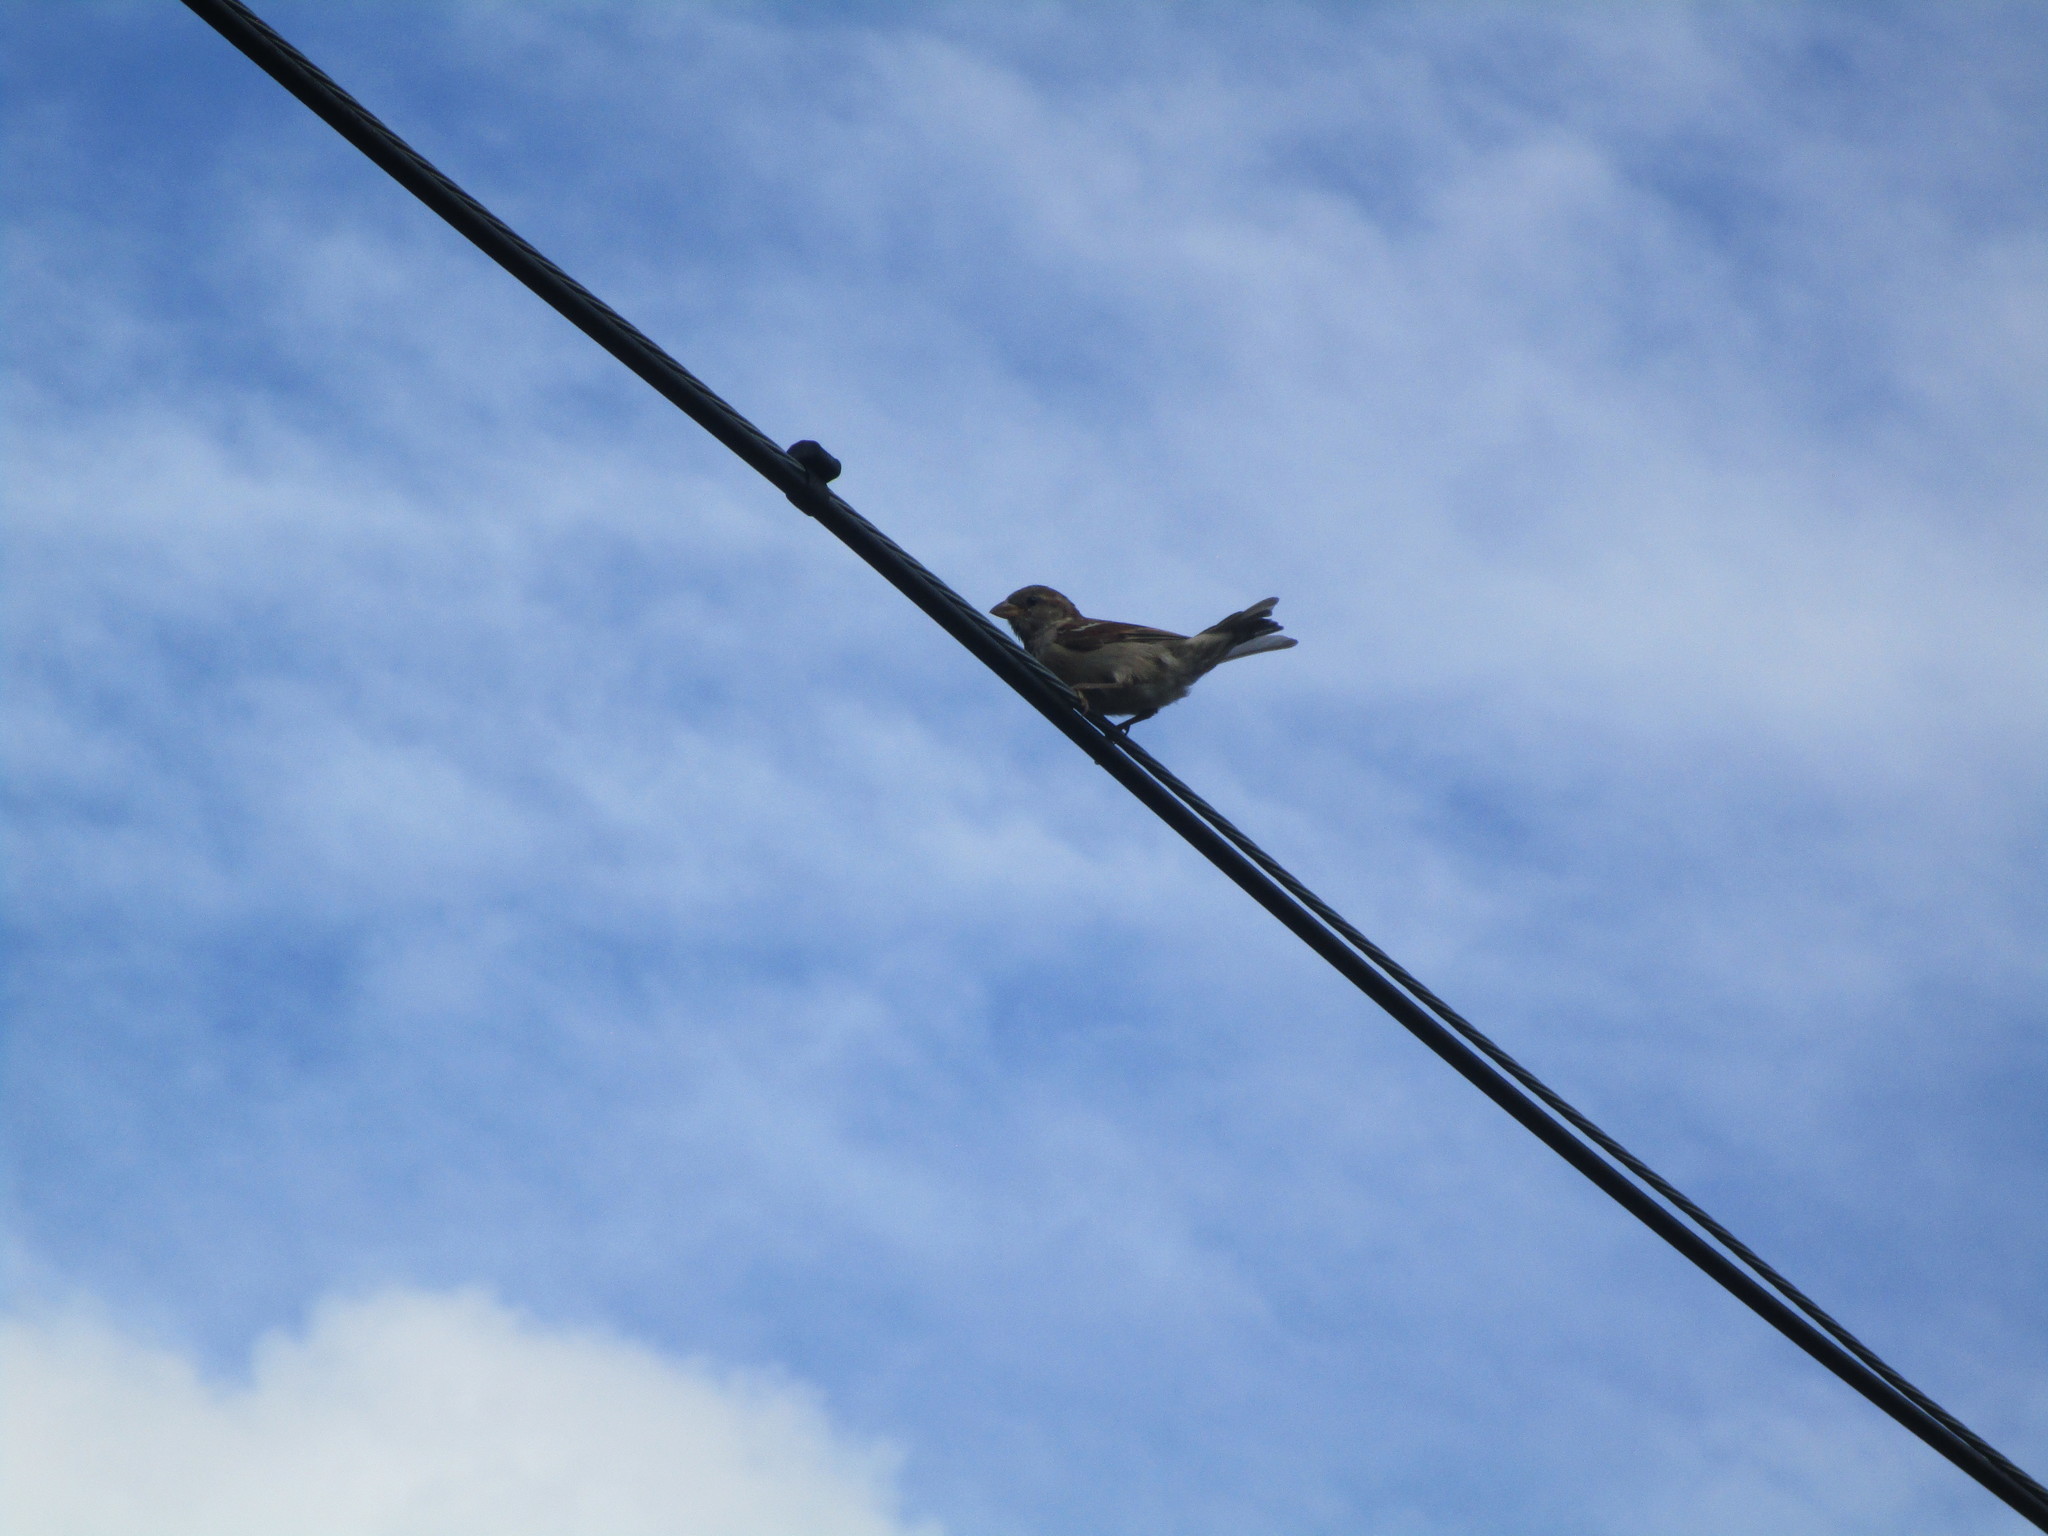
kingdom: Animalia
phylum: Chordata
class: Aves
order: Passeriformes
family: Passeridae
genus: Passer
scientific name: Passer domesticus
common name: House sparrow
